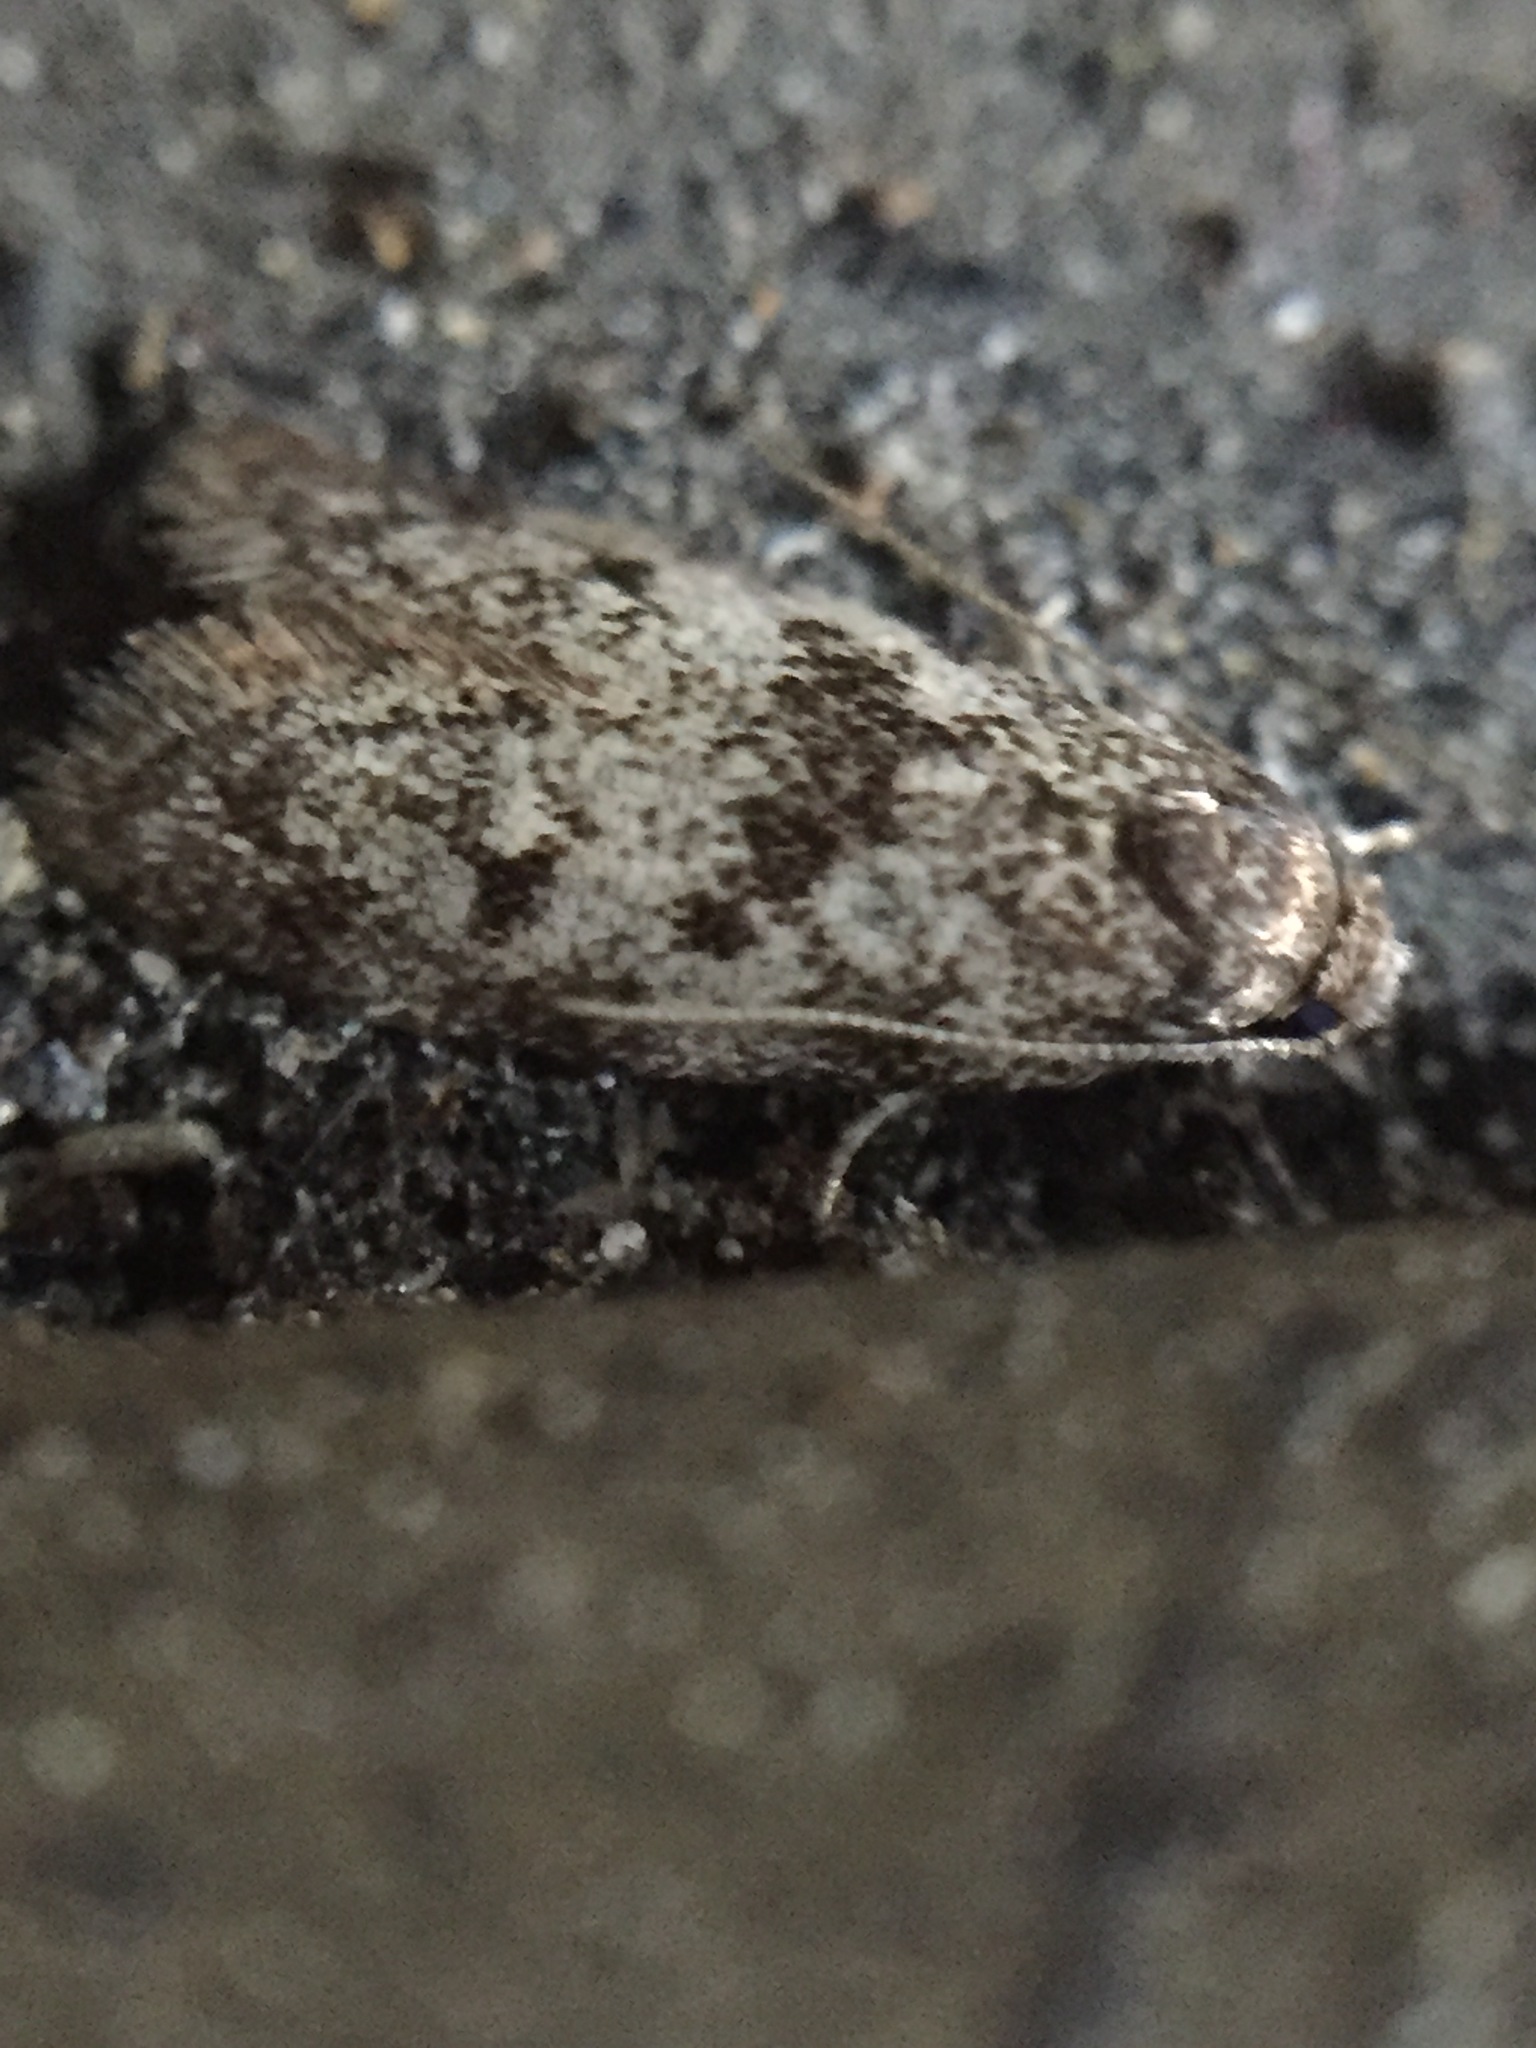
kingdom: Animalia
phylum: Arthropoda
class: Insecta
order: Lepidoptera
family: Oecophoridae
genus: Tingena
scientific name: Tingena clarkei
